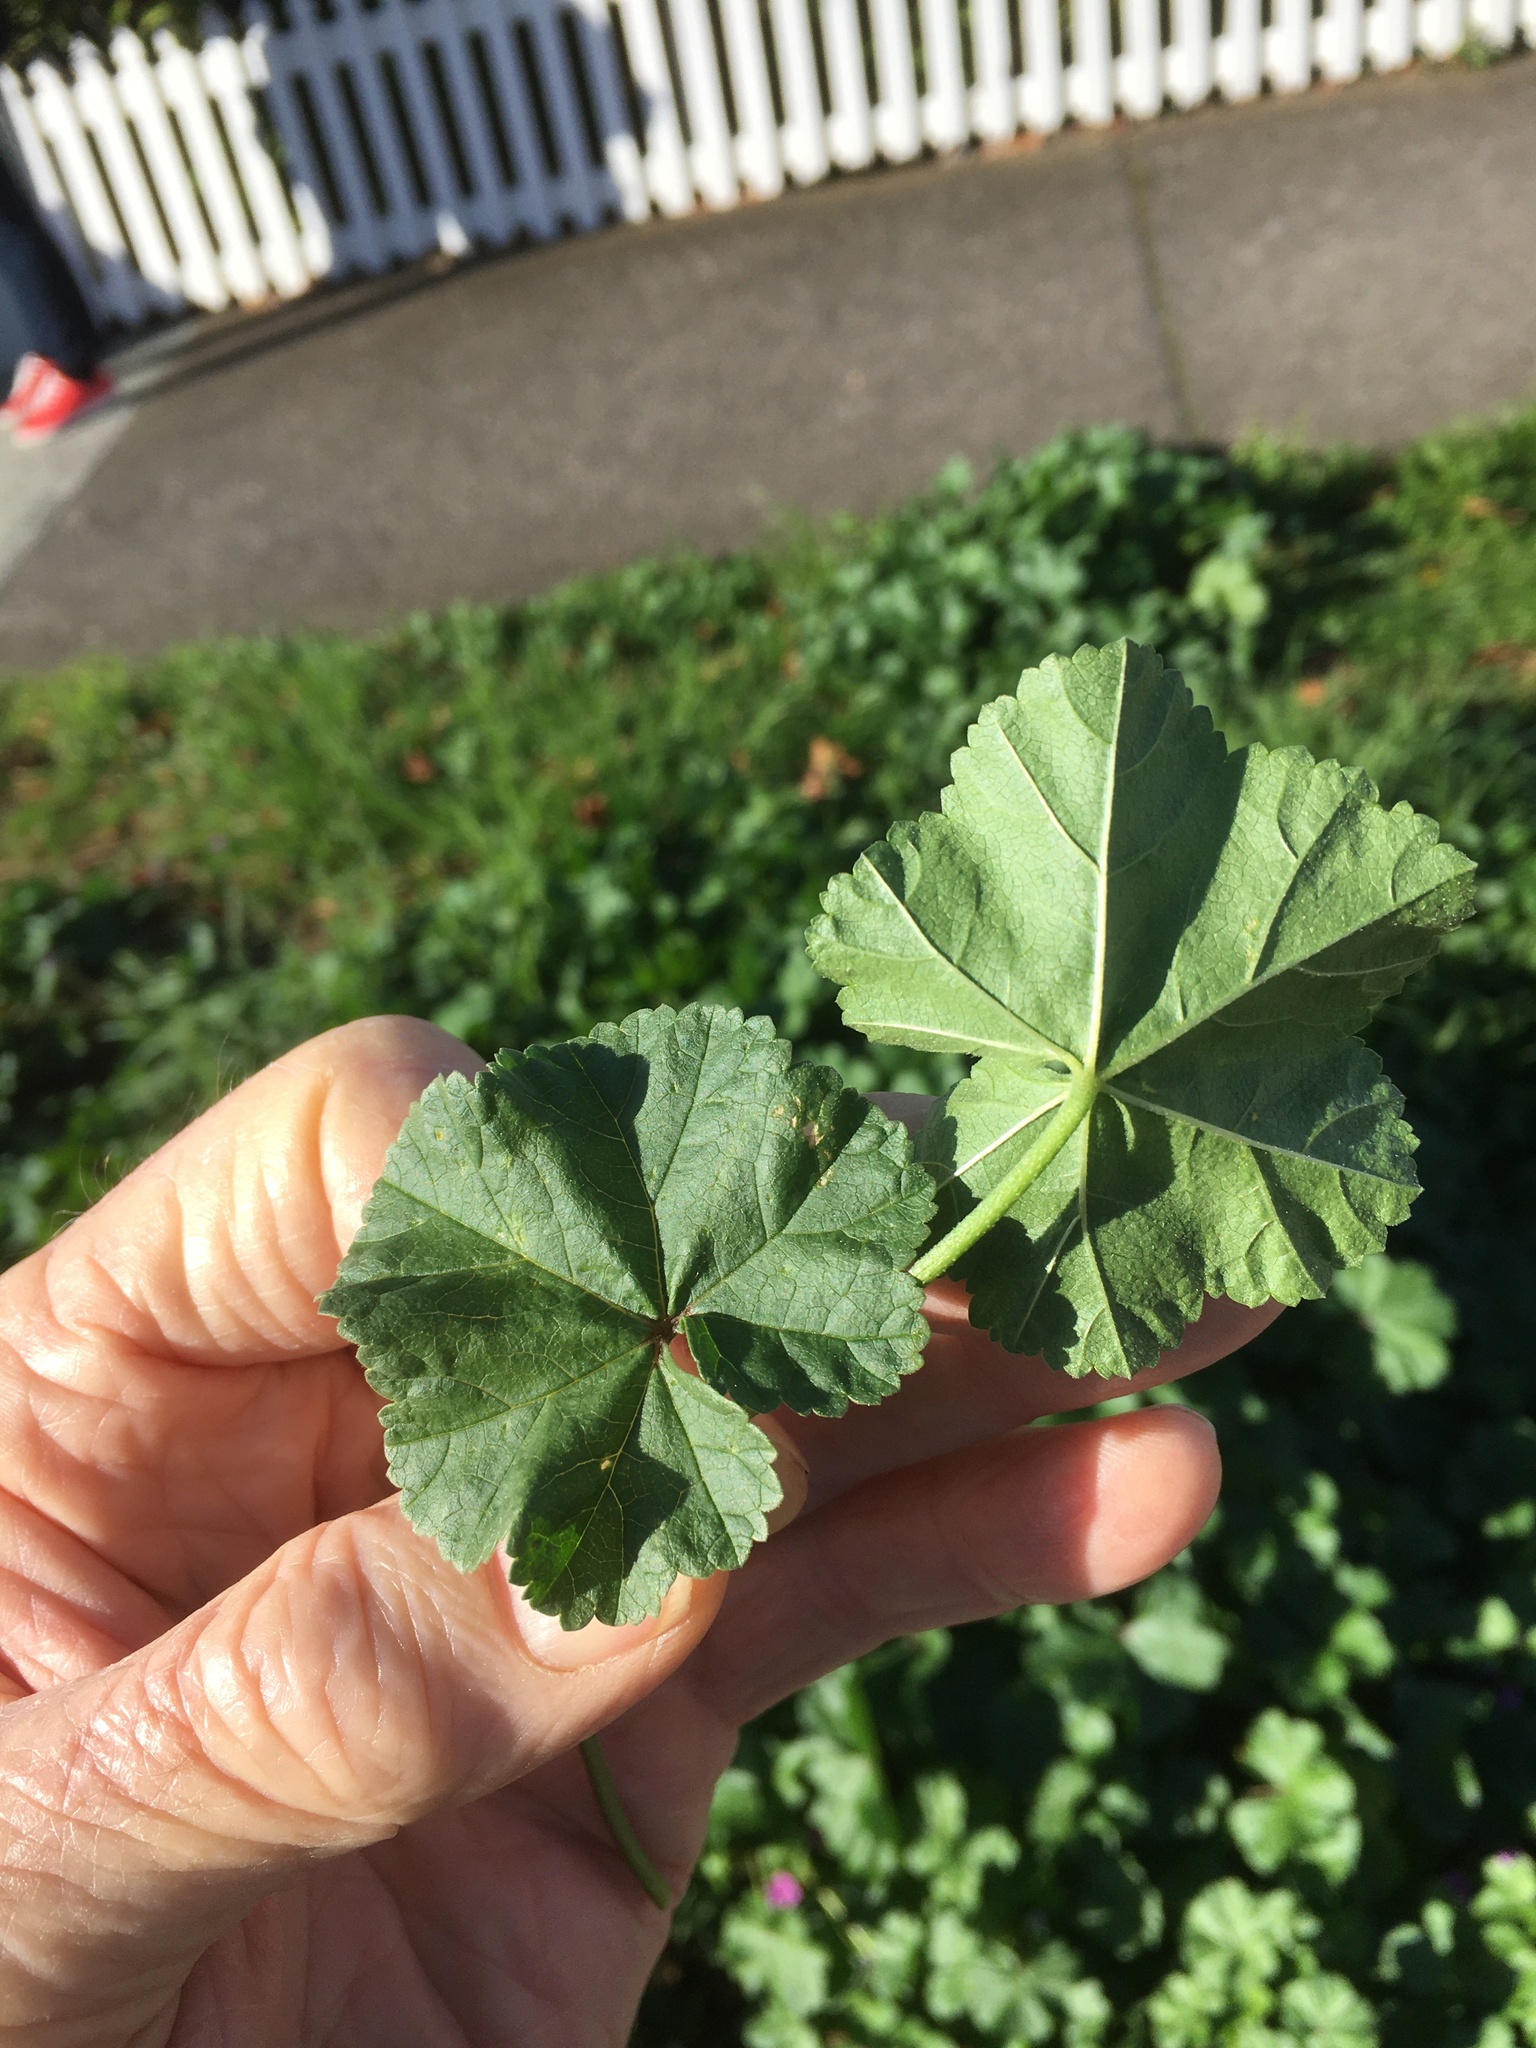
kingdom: Plantae
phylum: Tracheophyta
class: Magnoliopsida
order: Malvales
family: Malvaceae
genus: Malva
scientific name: Malva sylvestris
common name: Common mallow
